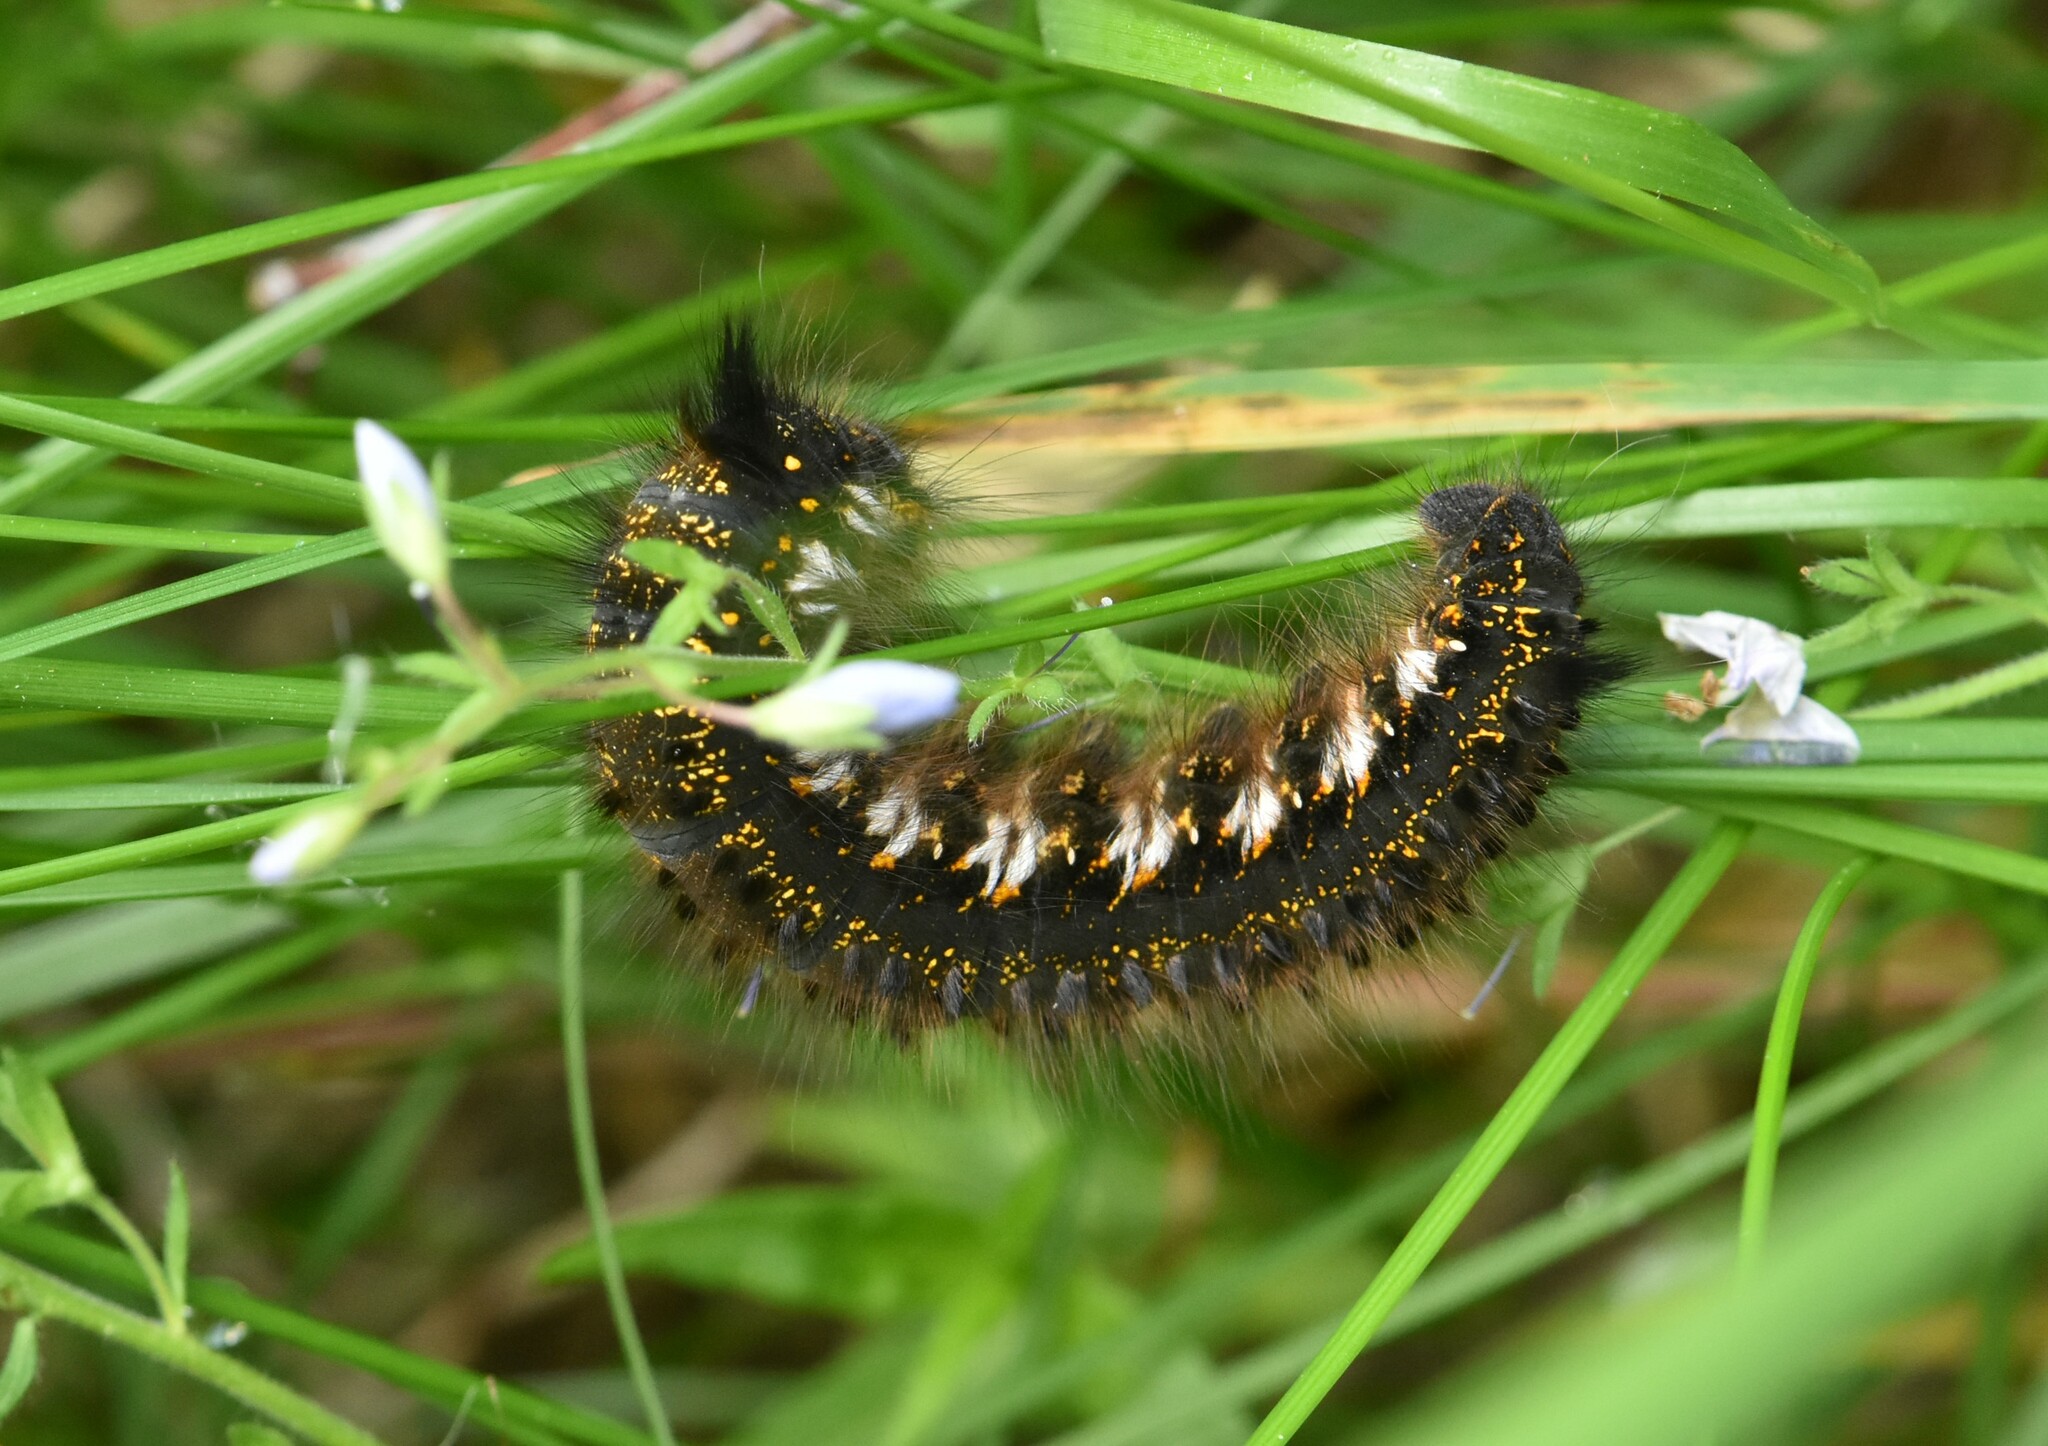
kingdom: Animalia
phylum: Arthropoda
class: Insecta
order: Lepidoptera
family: Lasiocampidae
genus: Euthrix
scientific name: Euthrix potatoria
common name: Drinker
